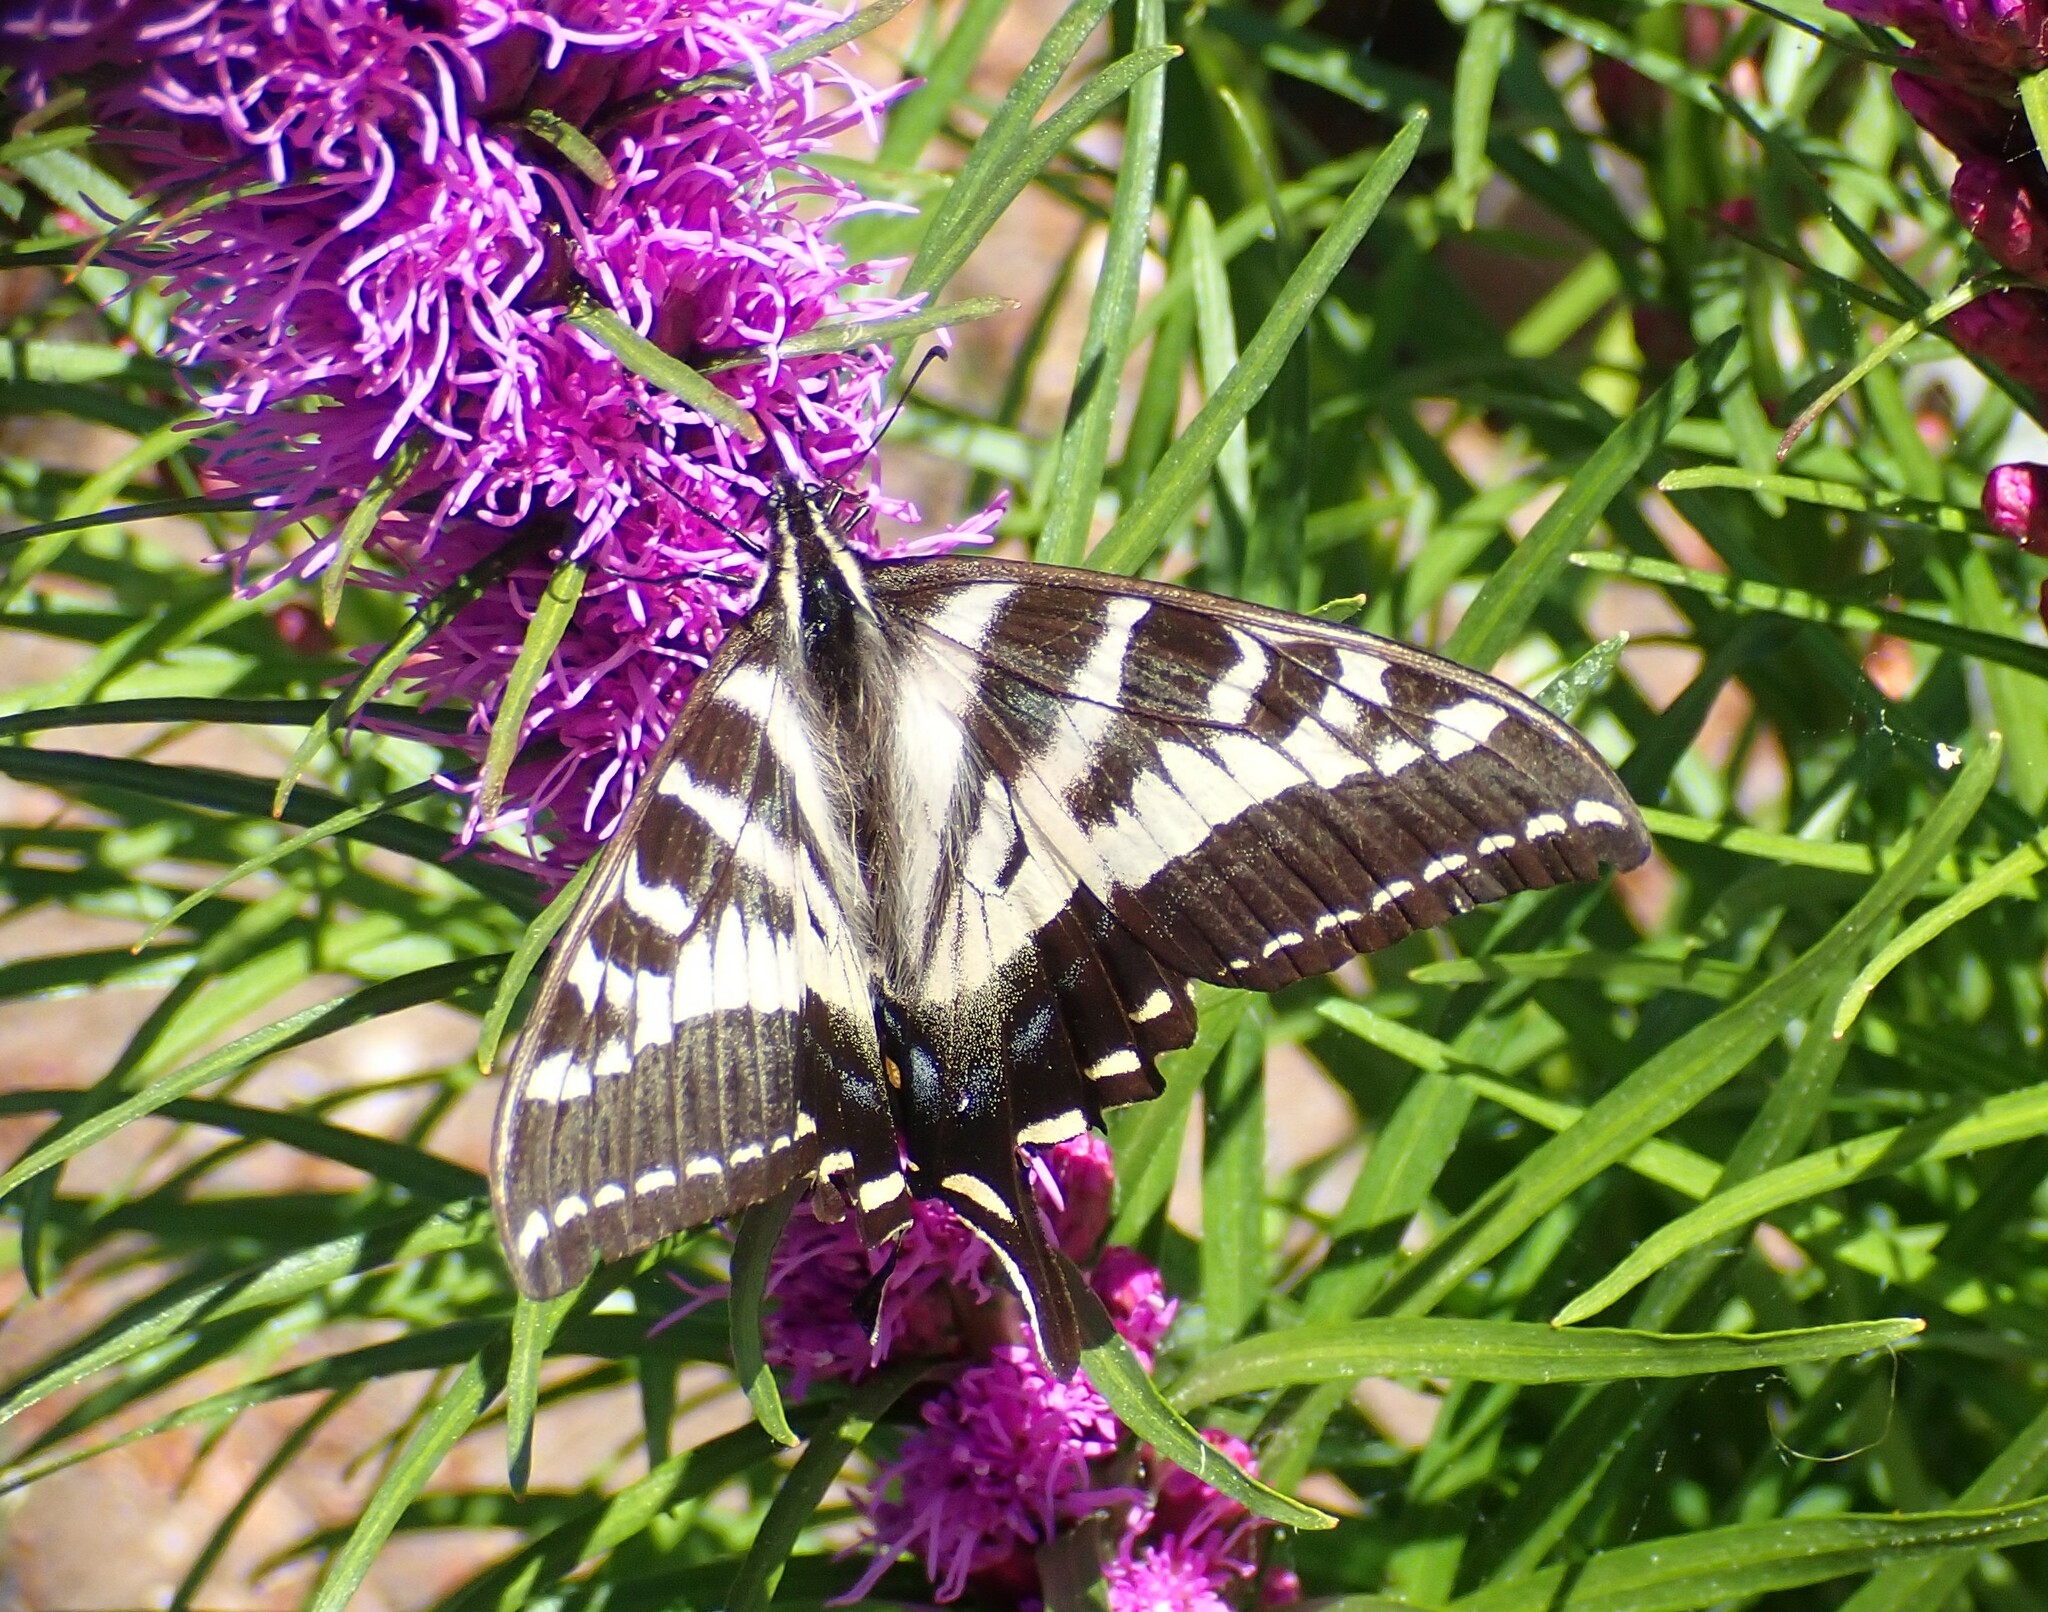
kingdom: Animalia
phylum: Arthropoda
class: Insecta
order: Lepidoptera
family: Papilionidae
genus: Papilio
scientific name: Papilio eurymedon
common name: Pale tiger swallowtail
